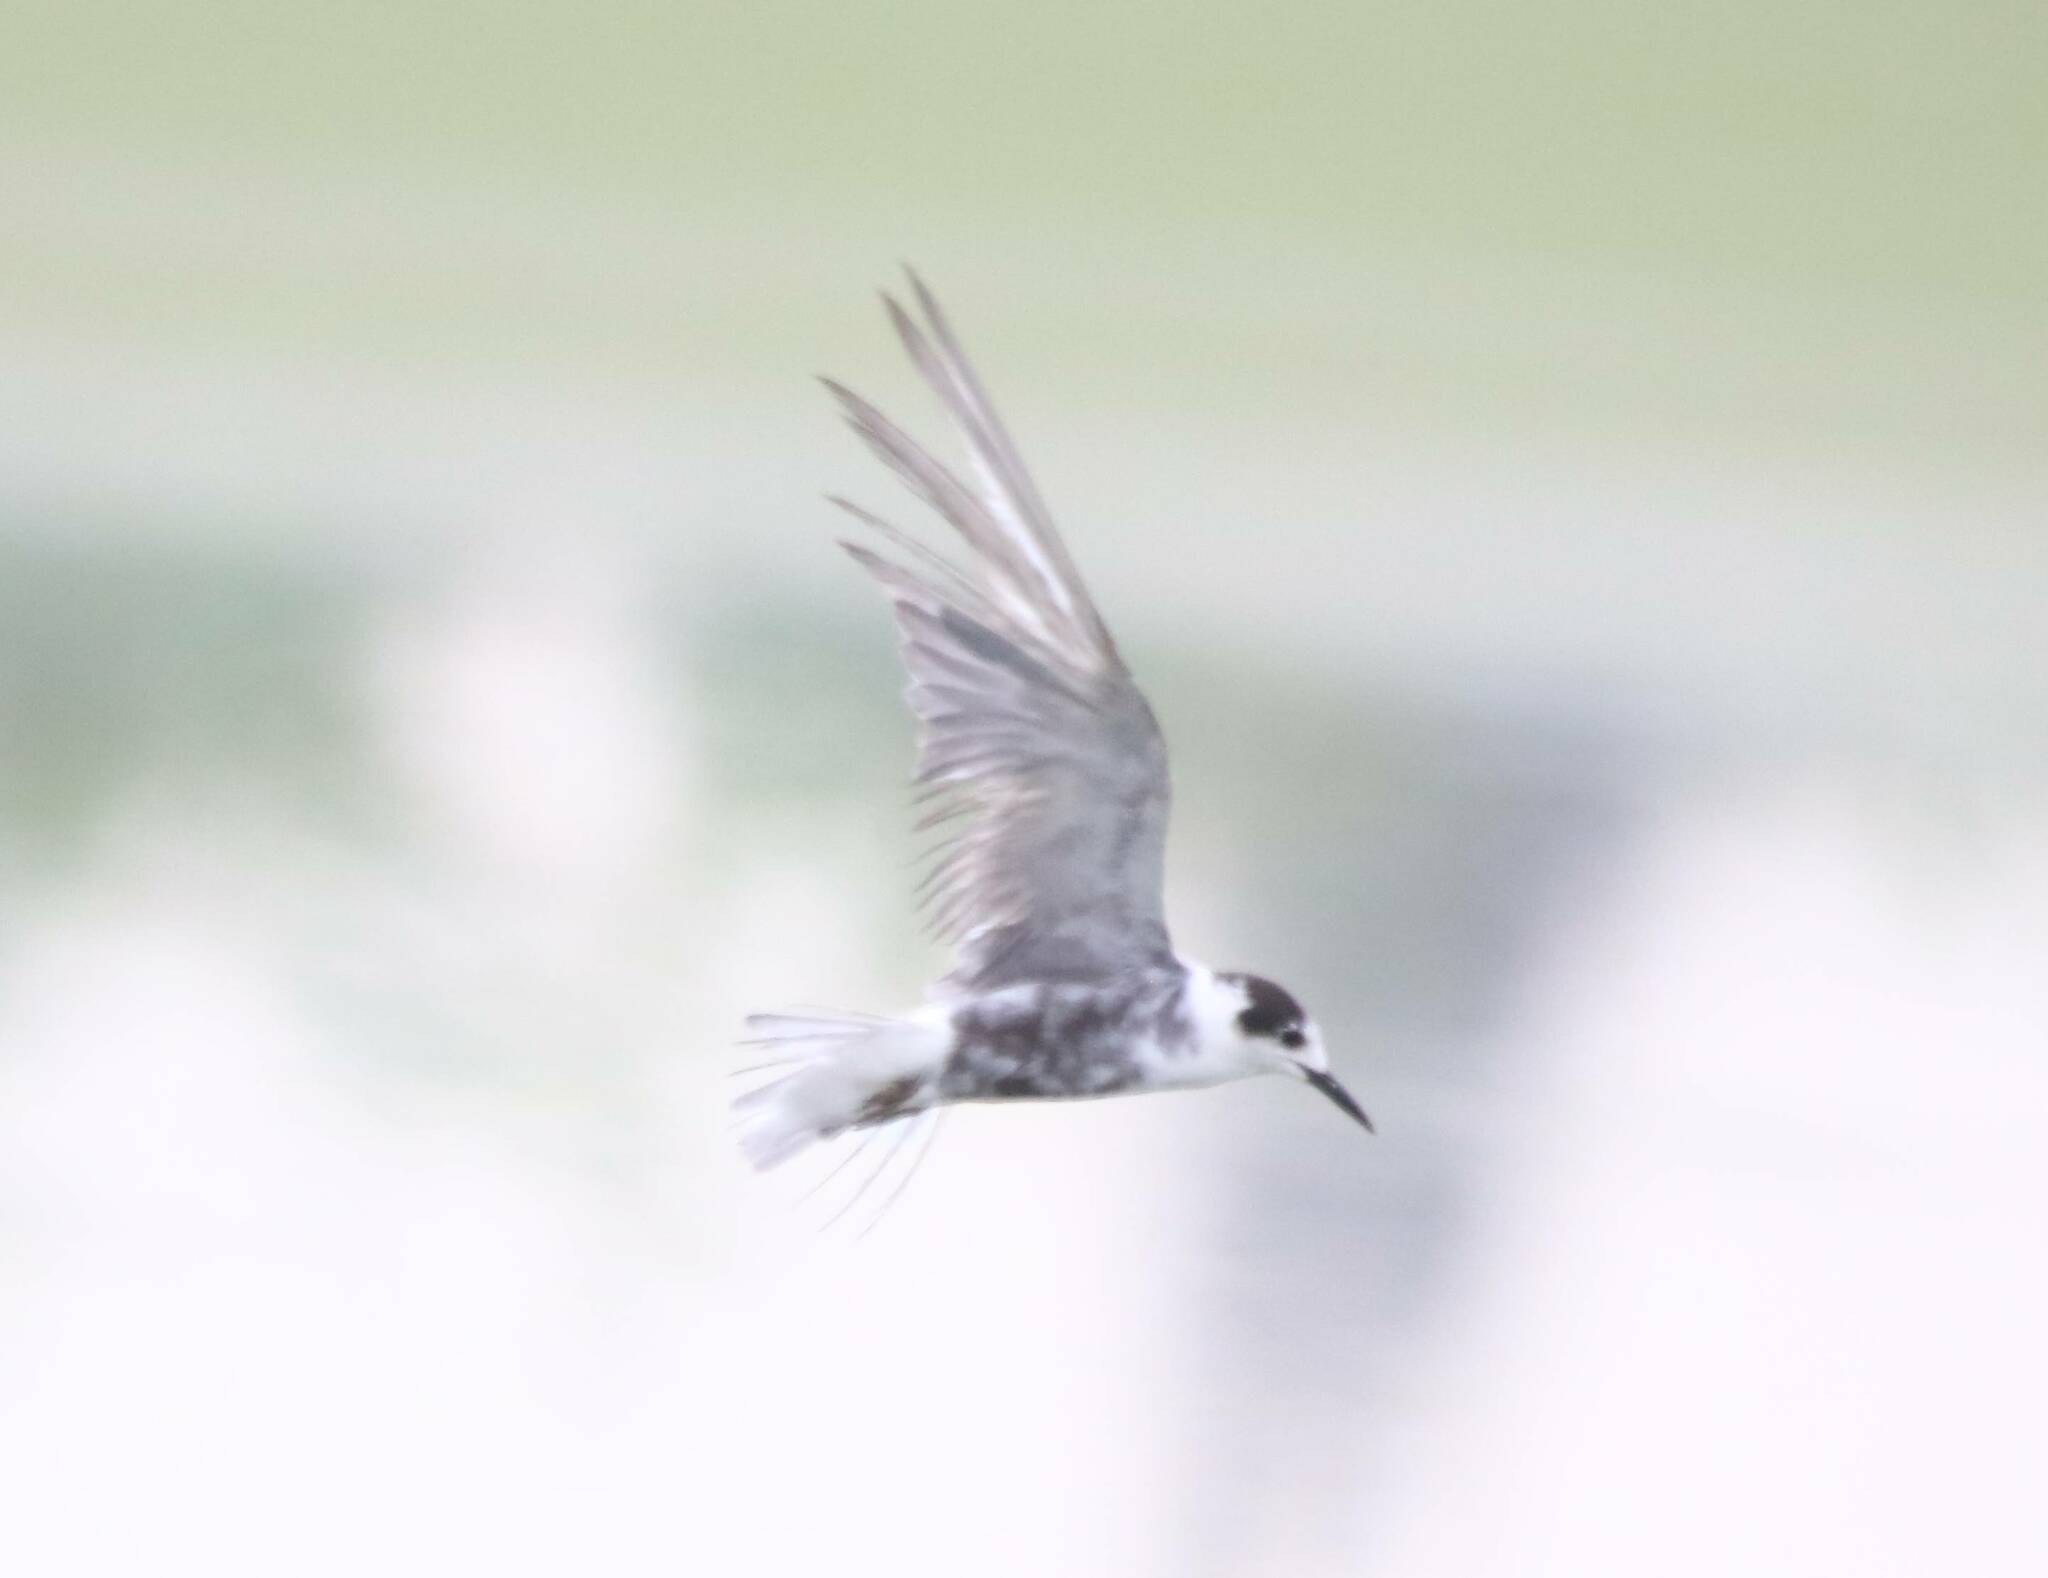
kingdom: Animalia
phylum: Chordata
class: Aves
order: Charadriiformes
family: Laridae
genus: Chlidonias
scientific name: Chlidonias niger
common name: Black tern
